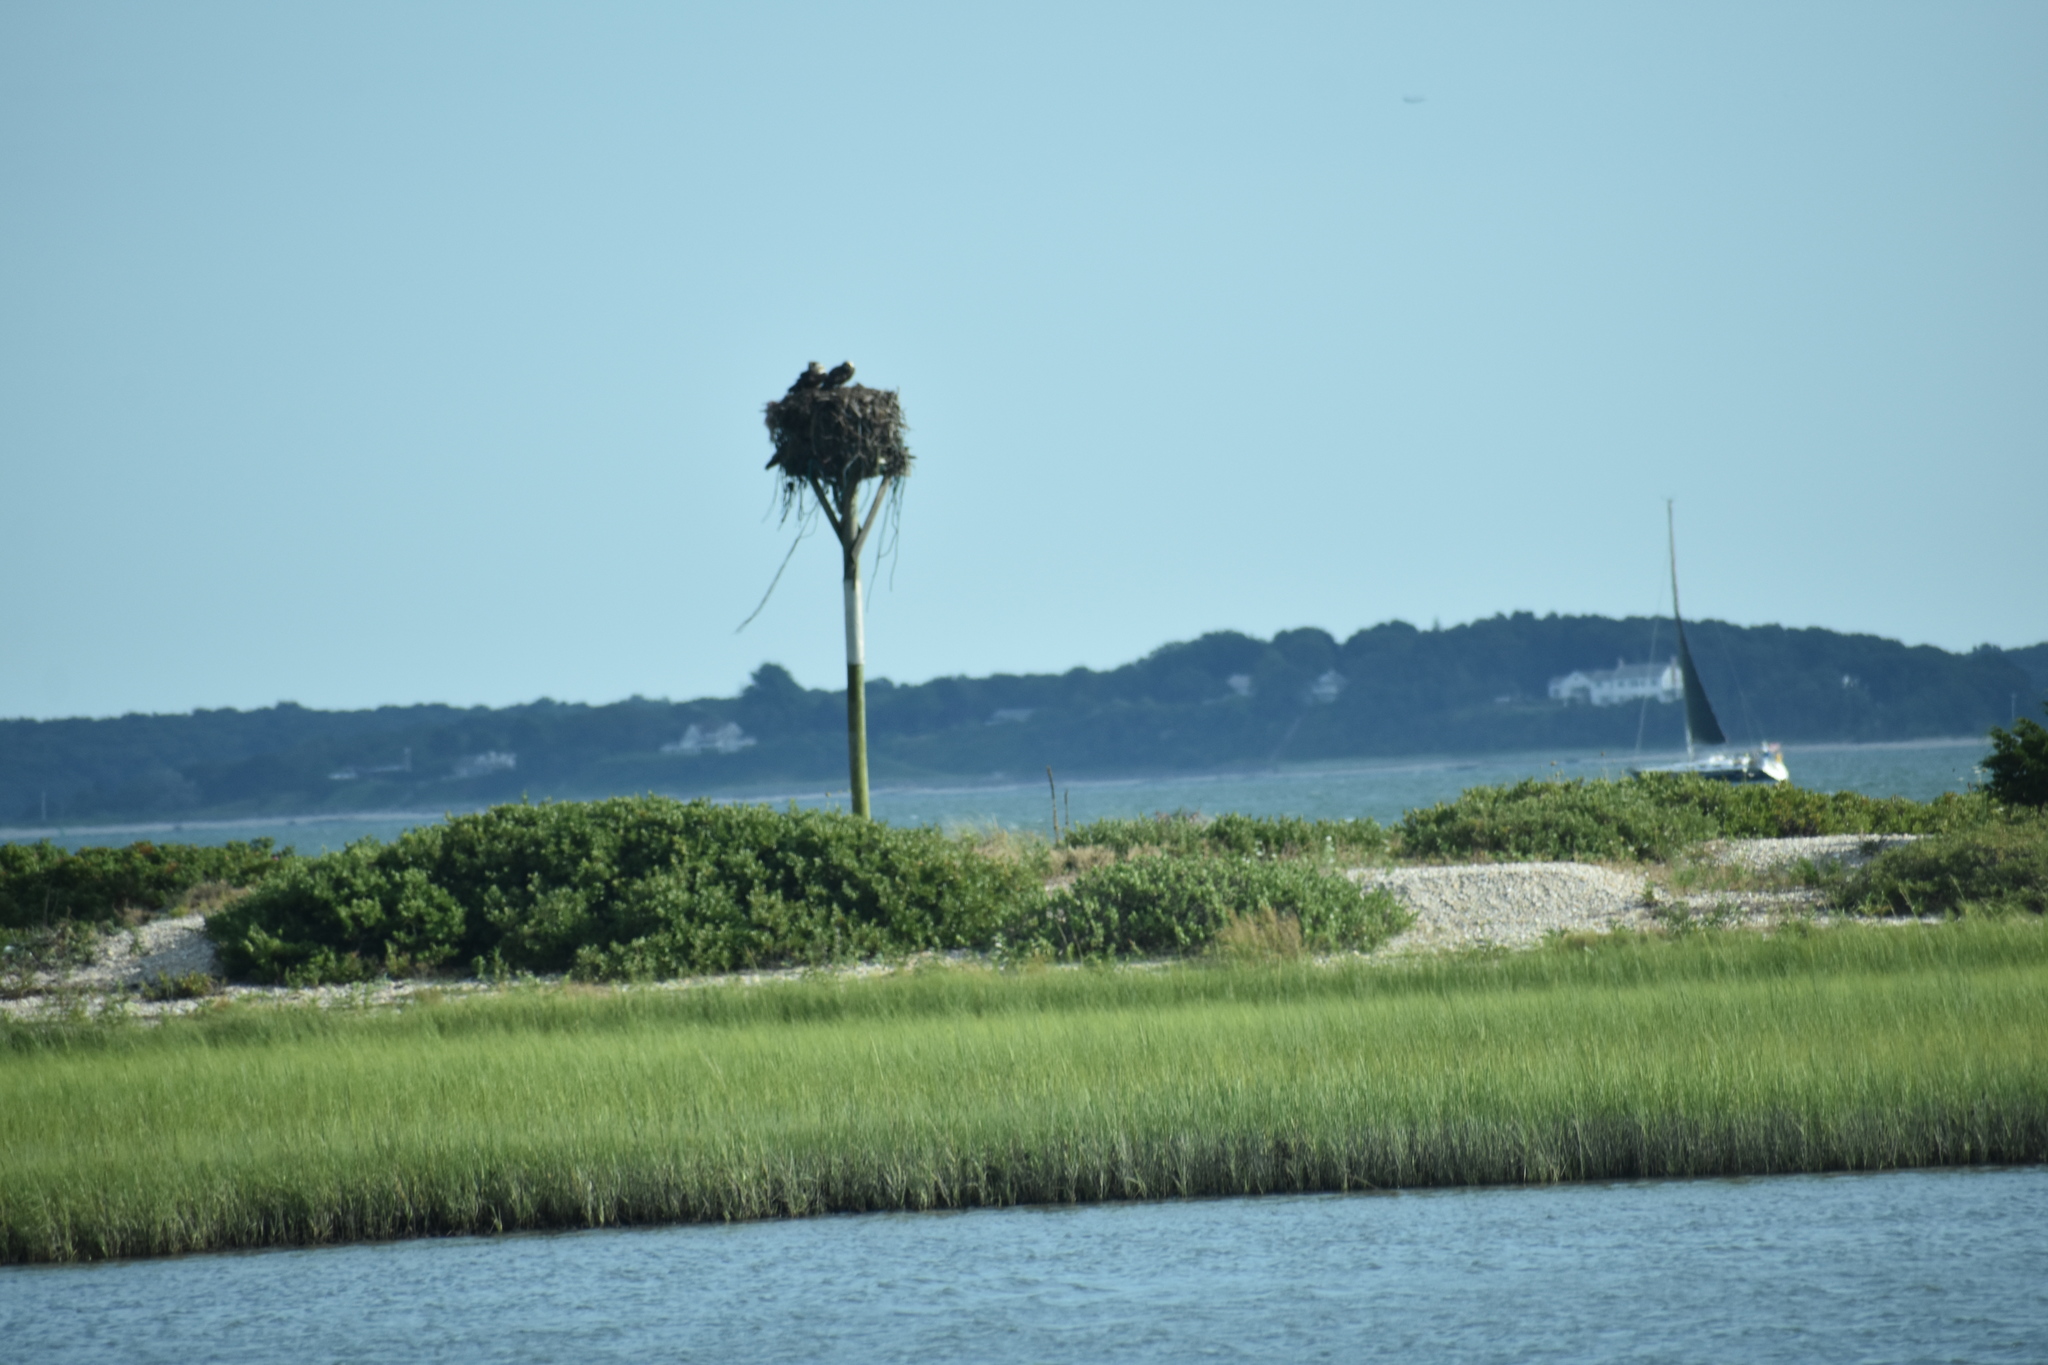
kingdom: Animalia
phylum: Chordata
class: Aves
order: Accipitriformes
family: Pandionidae
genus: Pandion
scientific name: Pandion haliaetus
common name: Osprey
